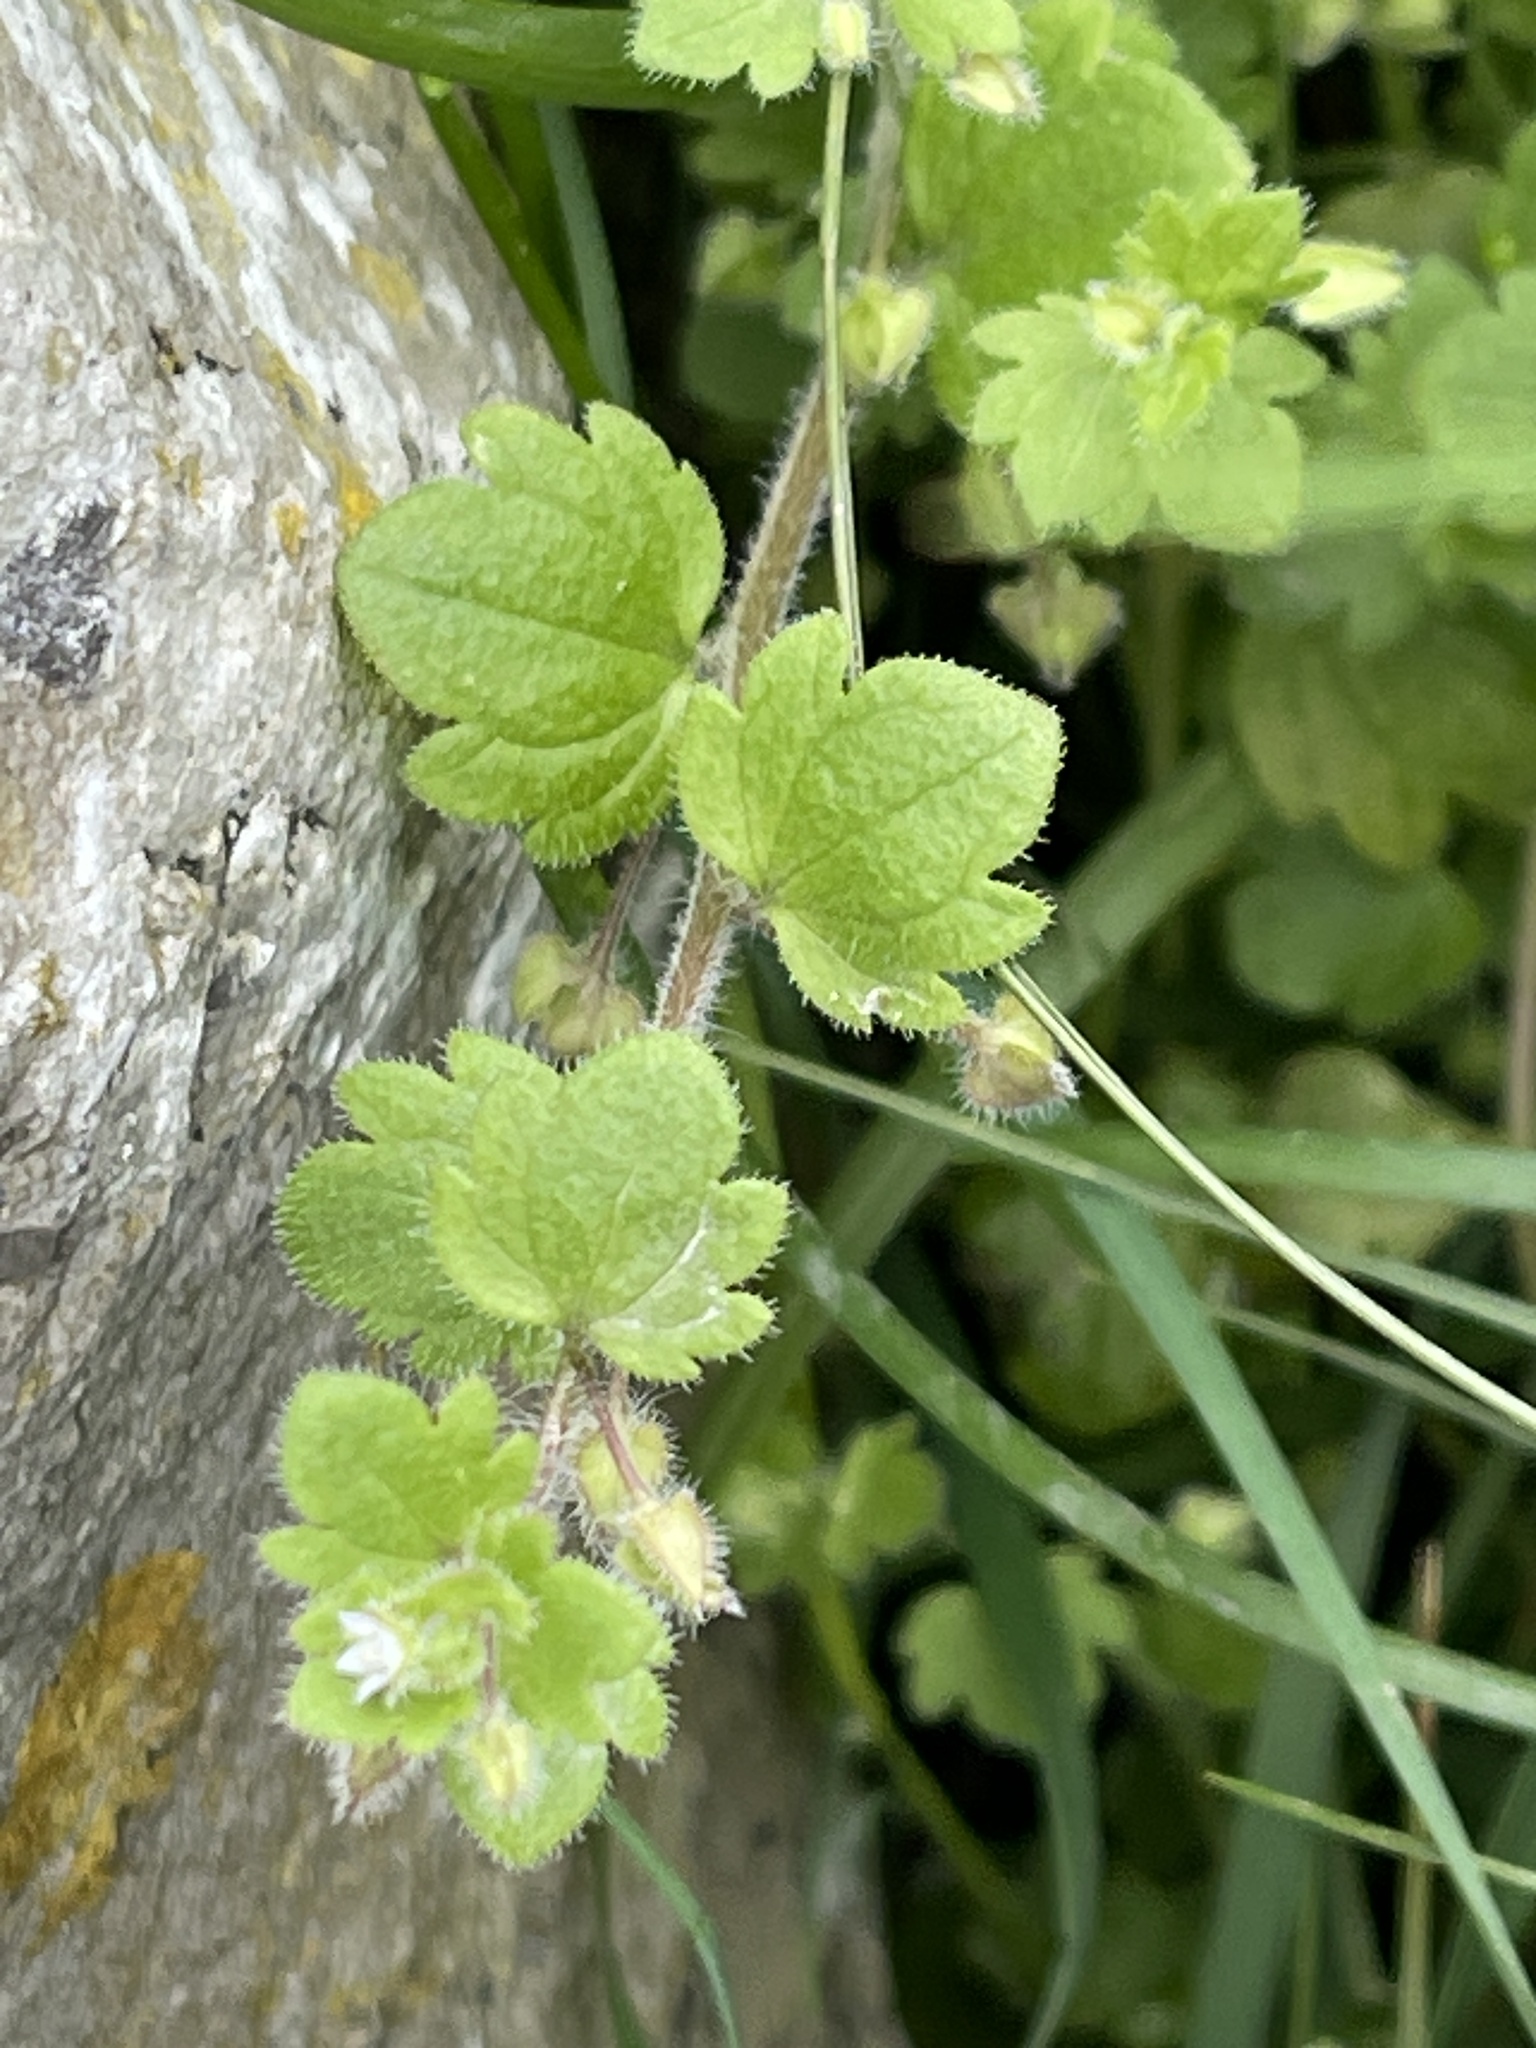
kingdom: Plantae
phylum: Tracheophyta
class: Magnoliopsida
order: Lamiales
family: Plantaginaceae
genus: Veronica
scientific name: Veronica sublobata
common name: False ivy-leaved speedwell
